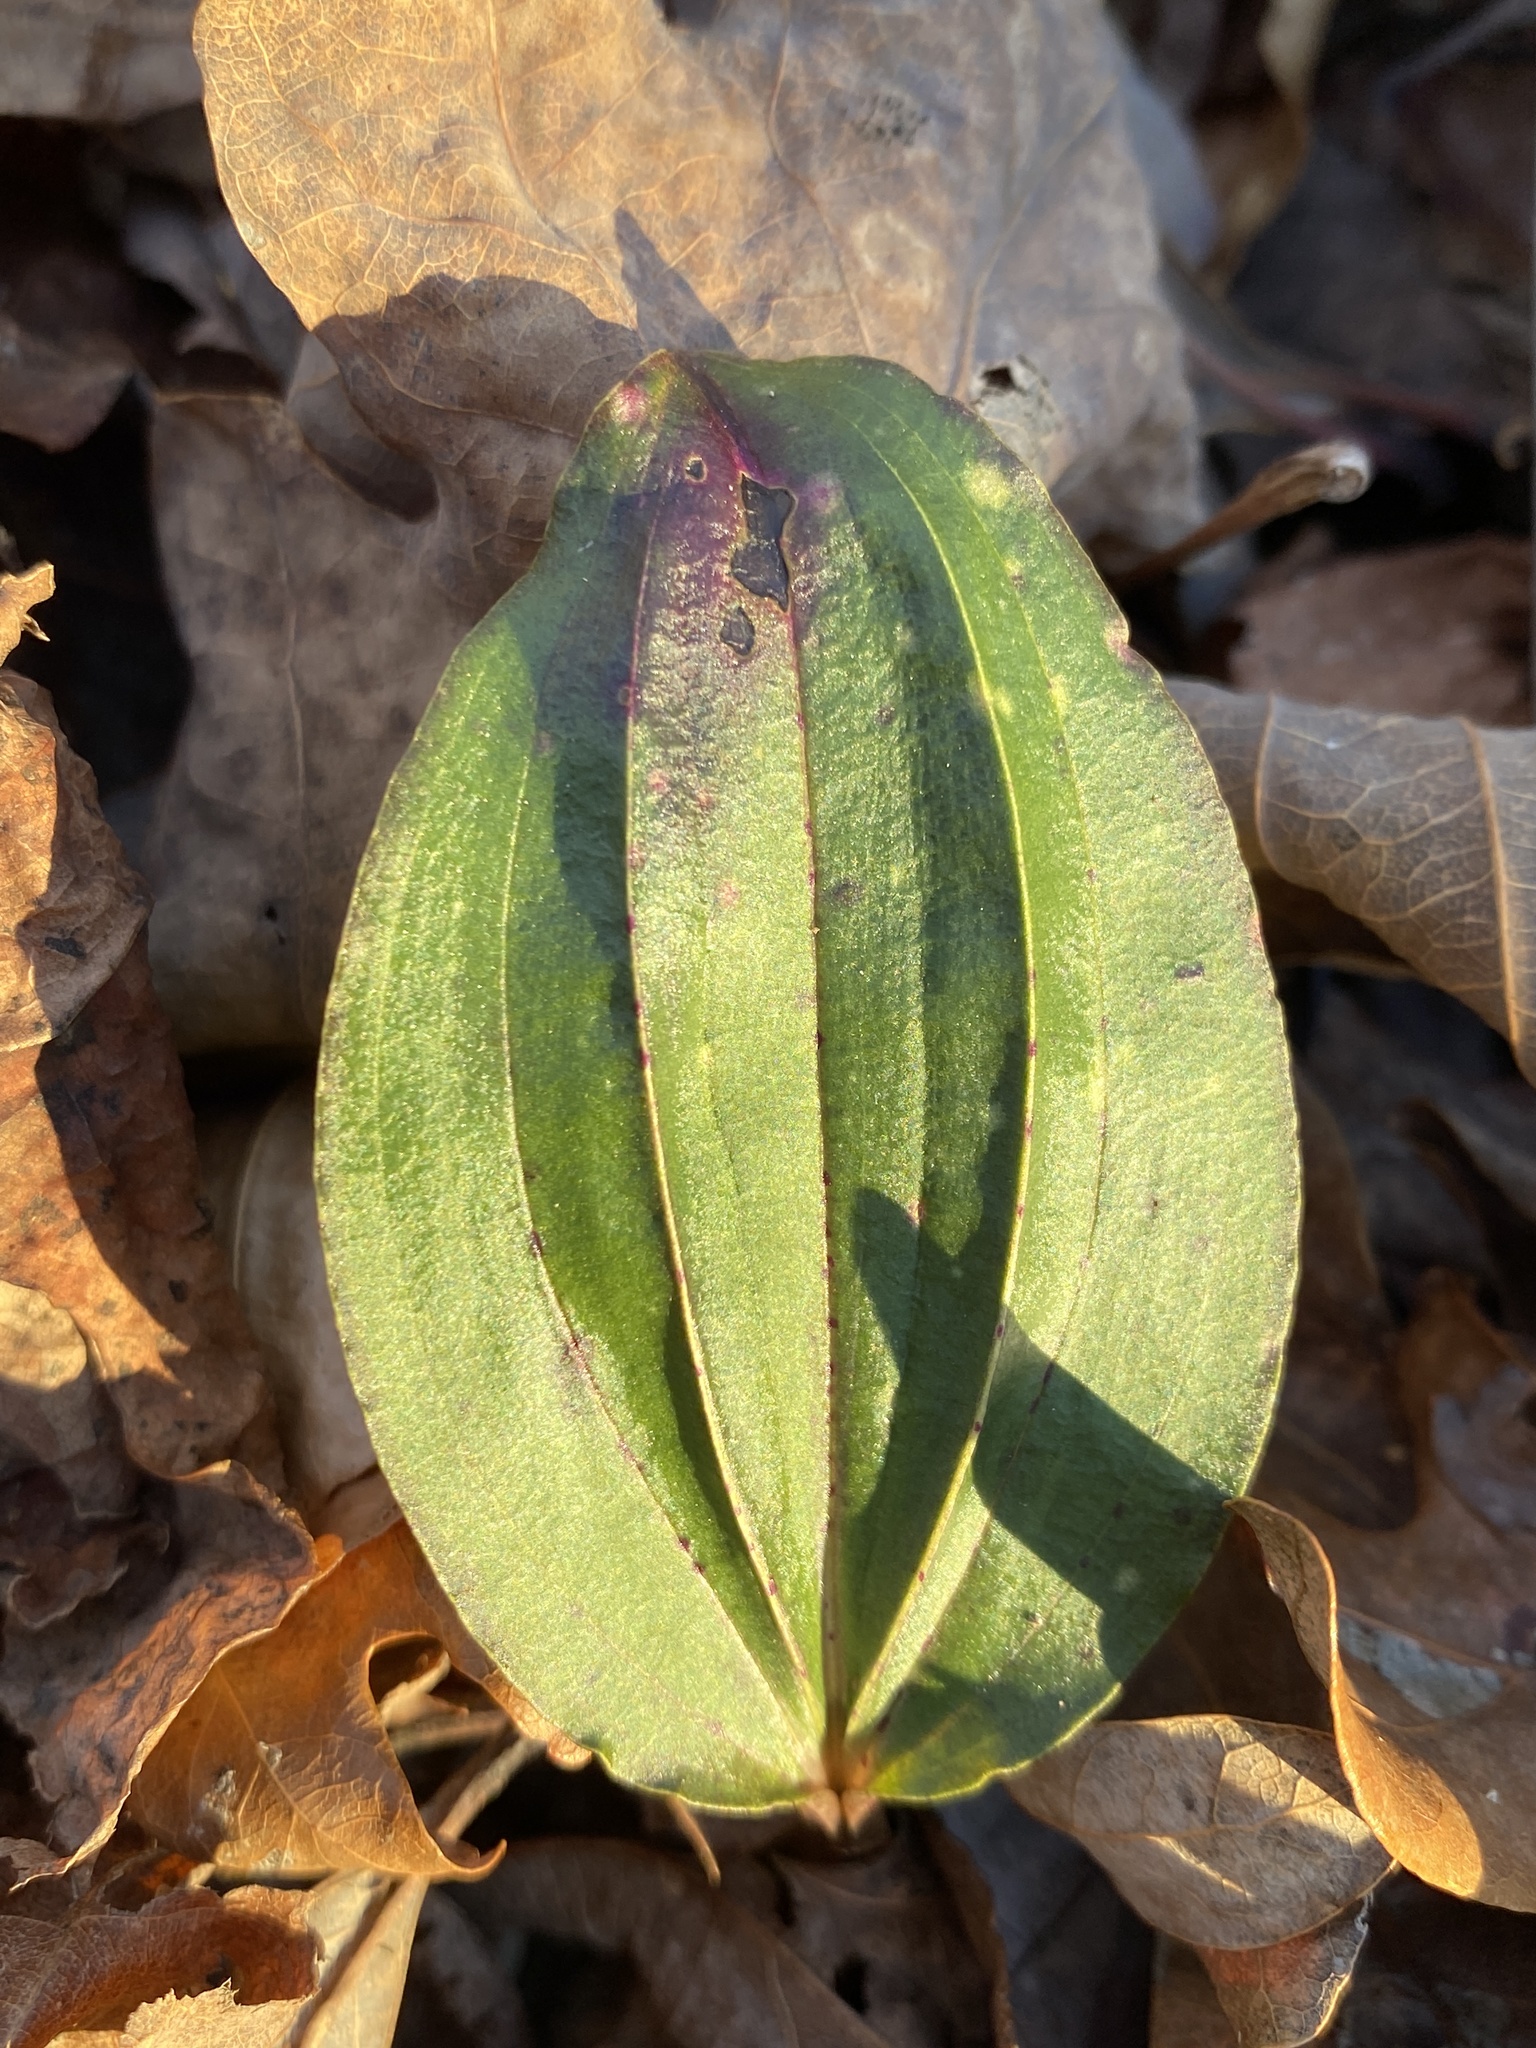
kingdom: Plantae
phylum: Tracheophyta
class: Liliopsida
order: Asparagales
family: Orchidaceae
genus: Tipularia
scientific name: Tipularia discolor
